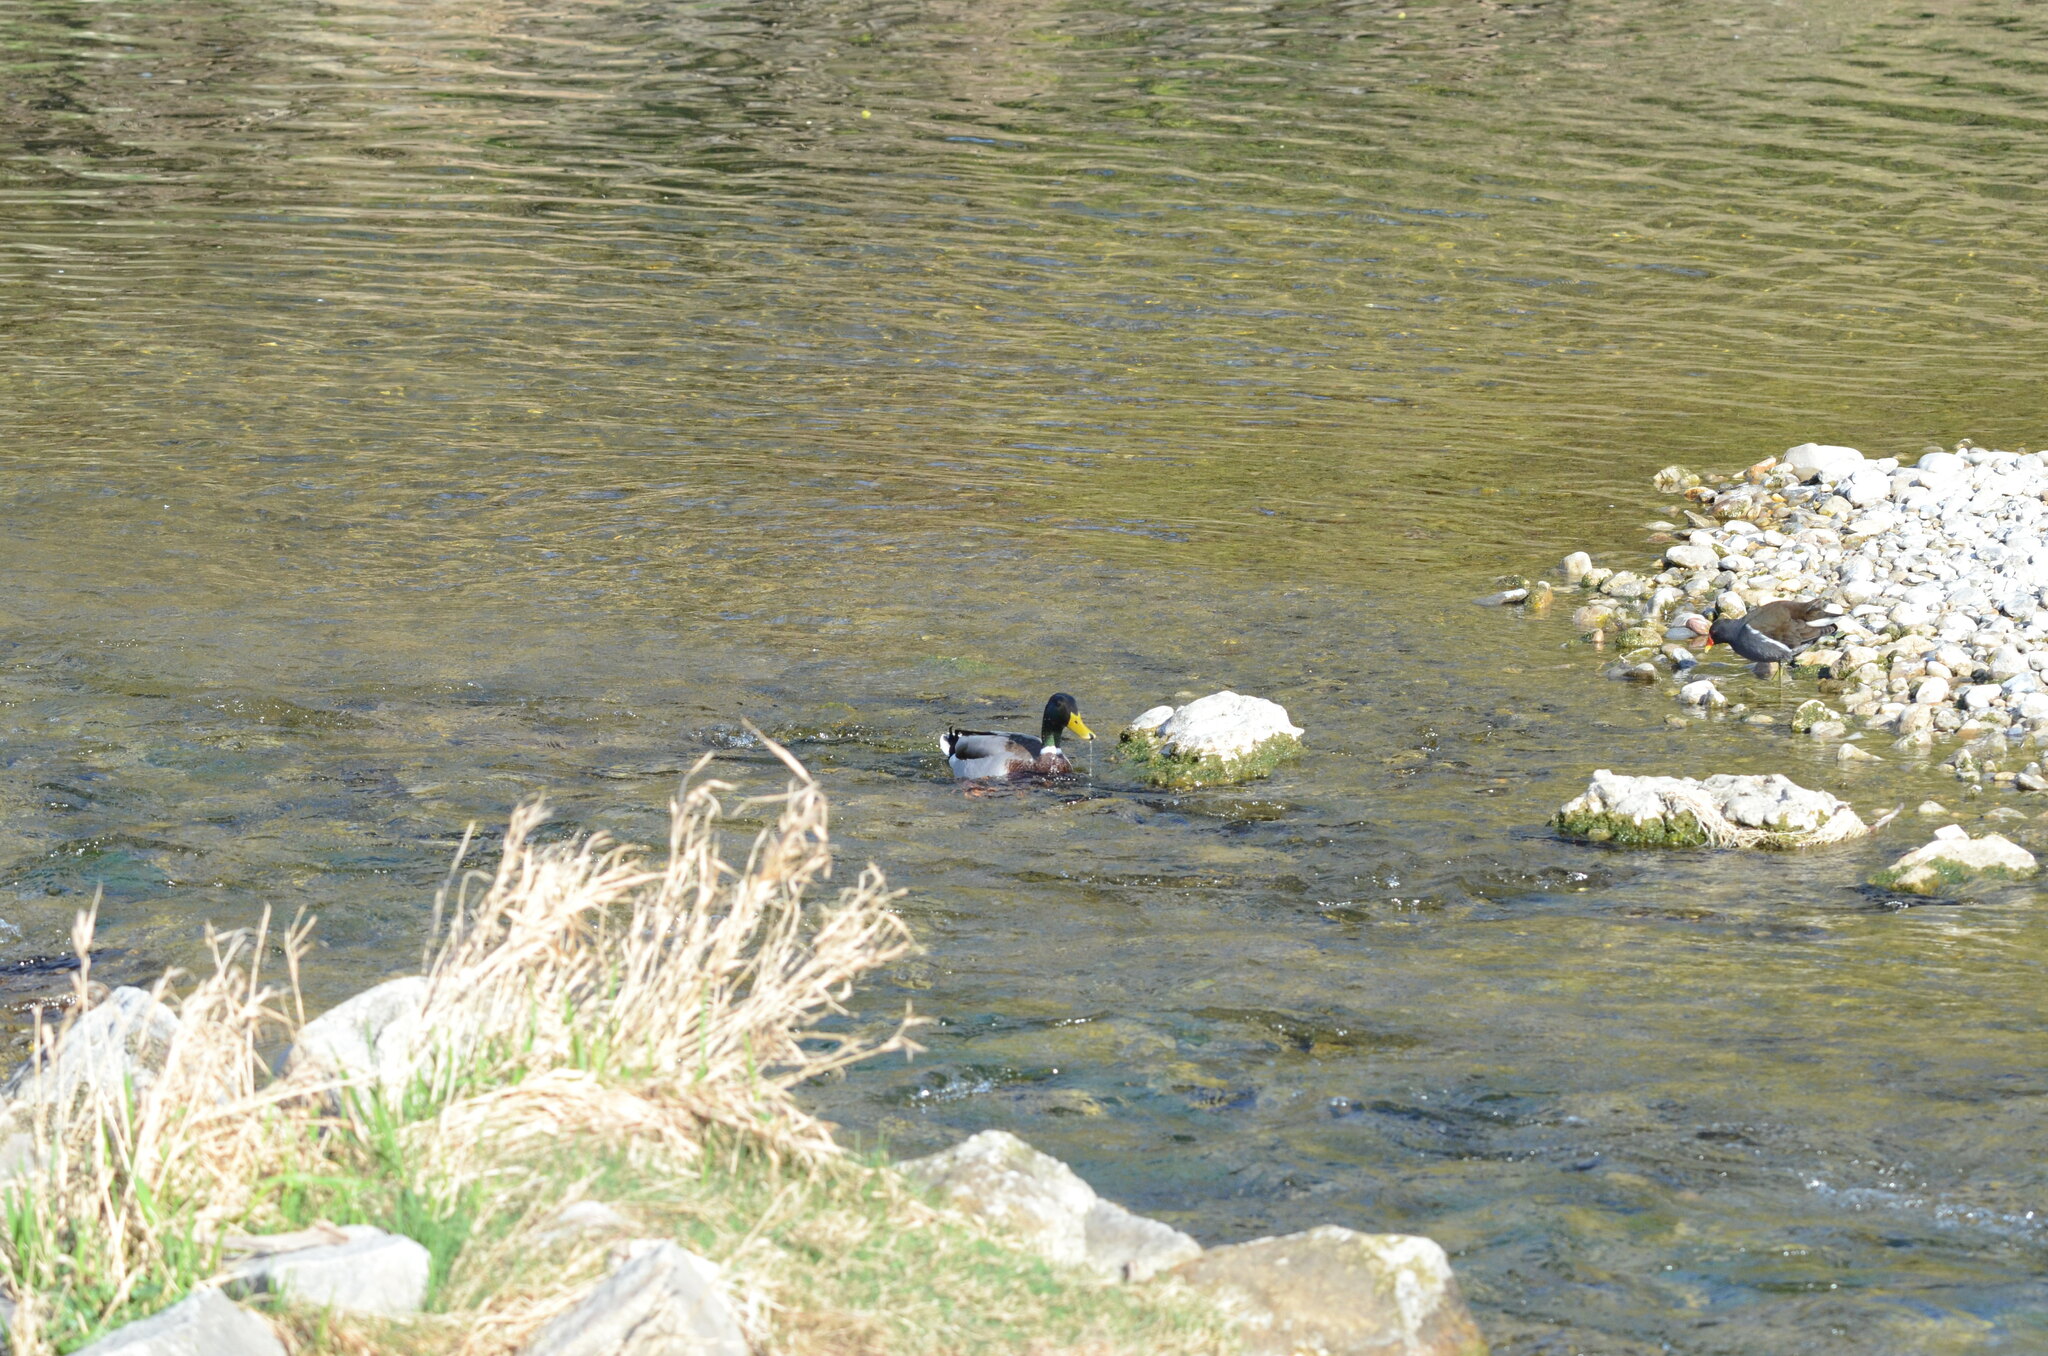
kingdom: Animalia
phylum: Chordata
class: Aves
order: Anseriformes
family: Anatidae
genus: Anas
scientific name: Anas platyrhynchos
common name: Mallard
